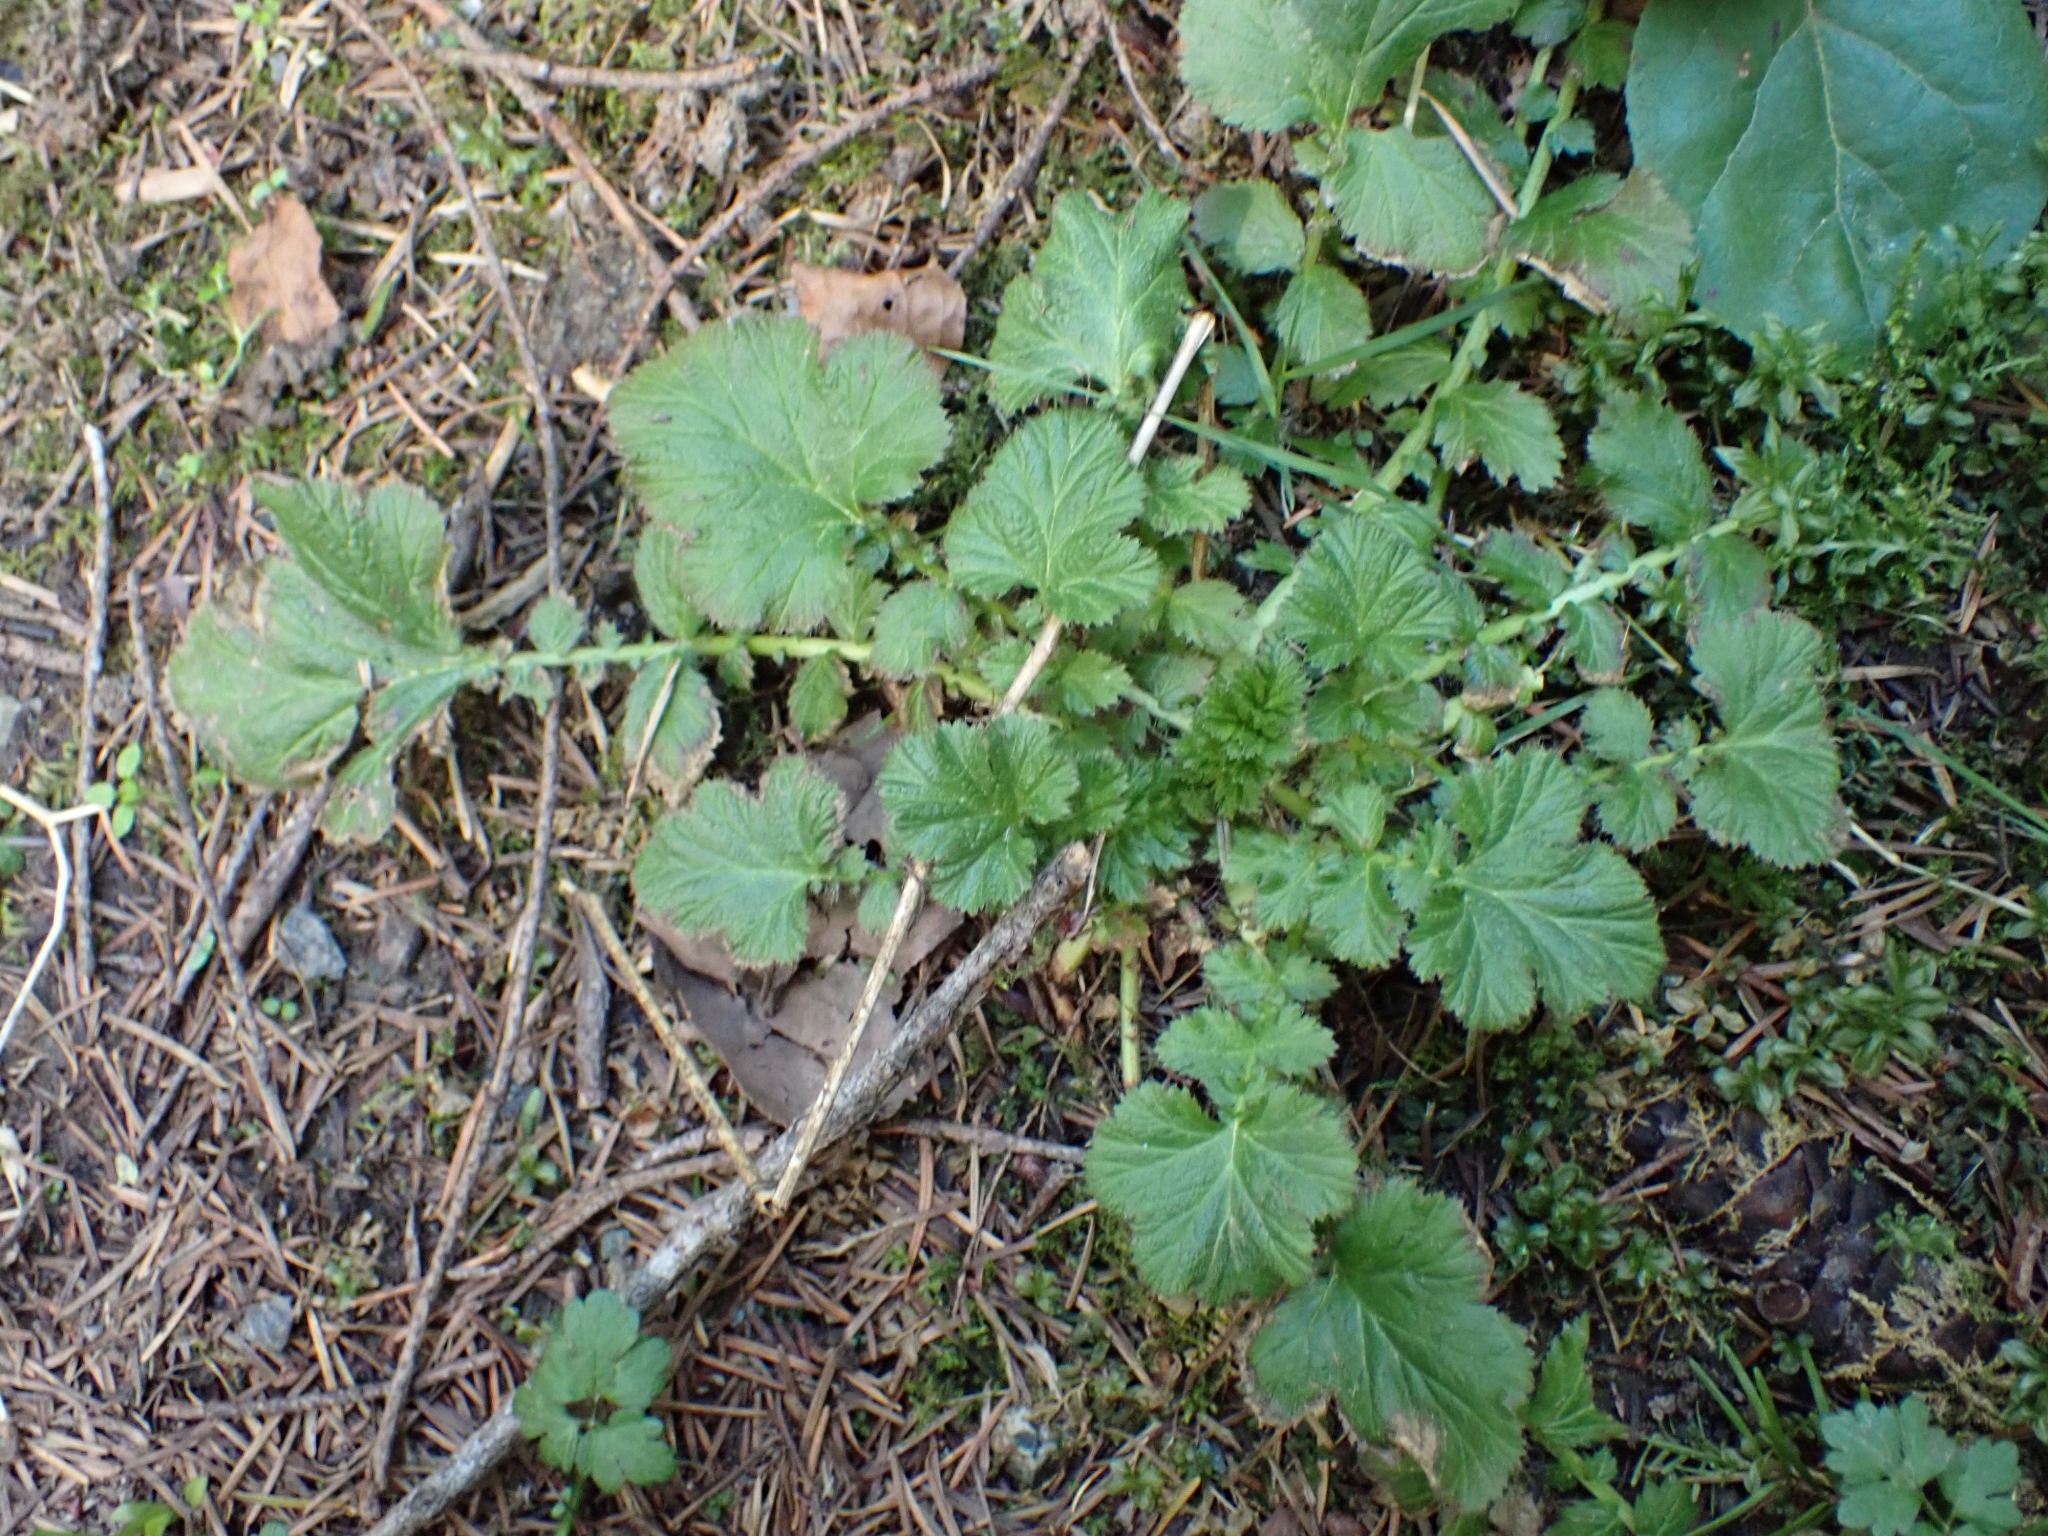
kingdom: Plantae
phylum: Tracheophyta
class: Magnoliopsida
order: Rosales
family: Rosaceae
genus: Geum
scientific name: Geum macrophyllum
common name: Large-leaved avens
